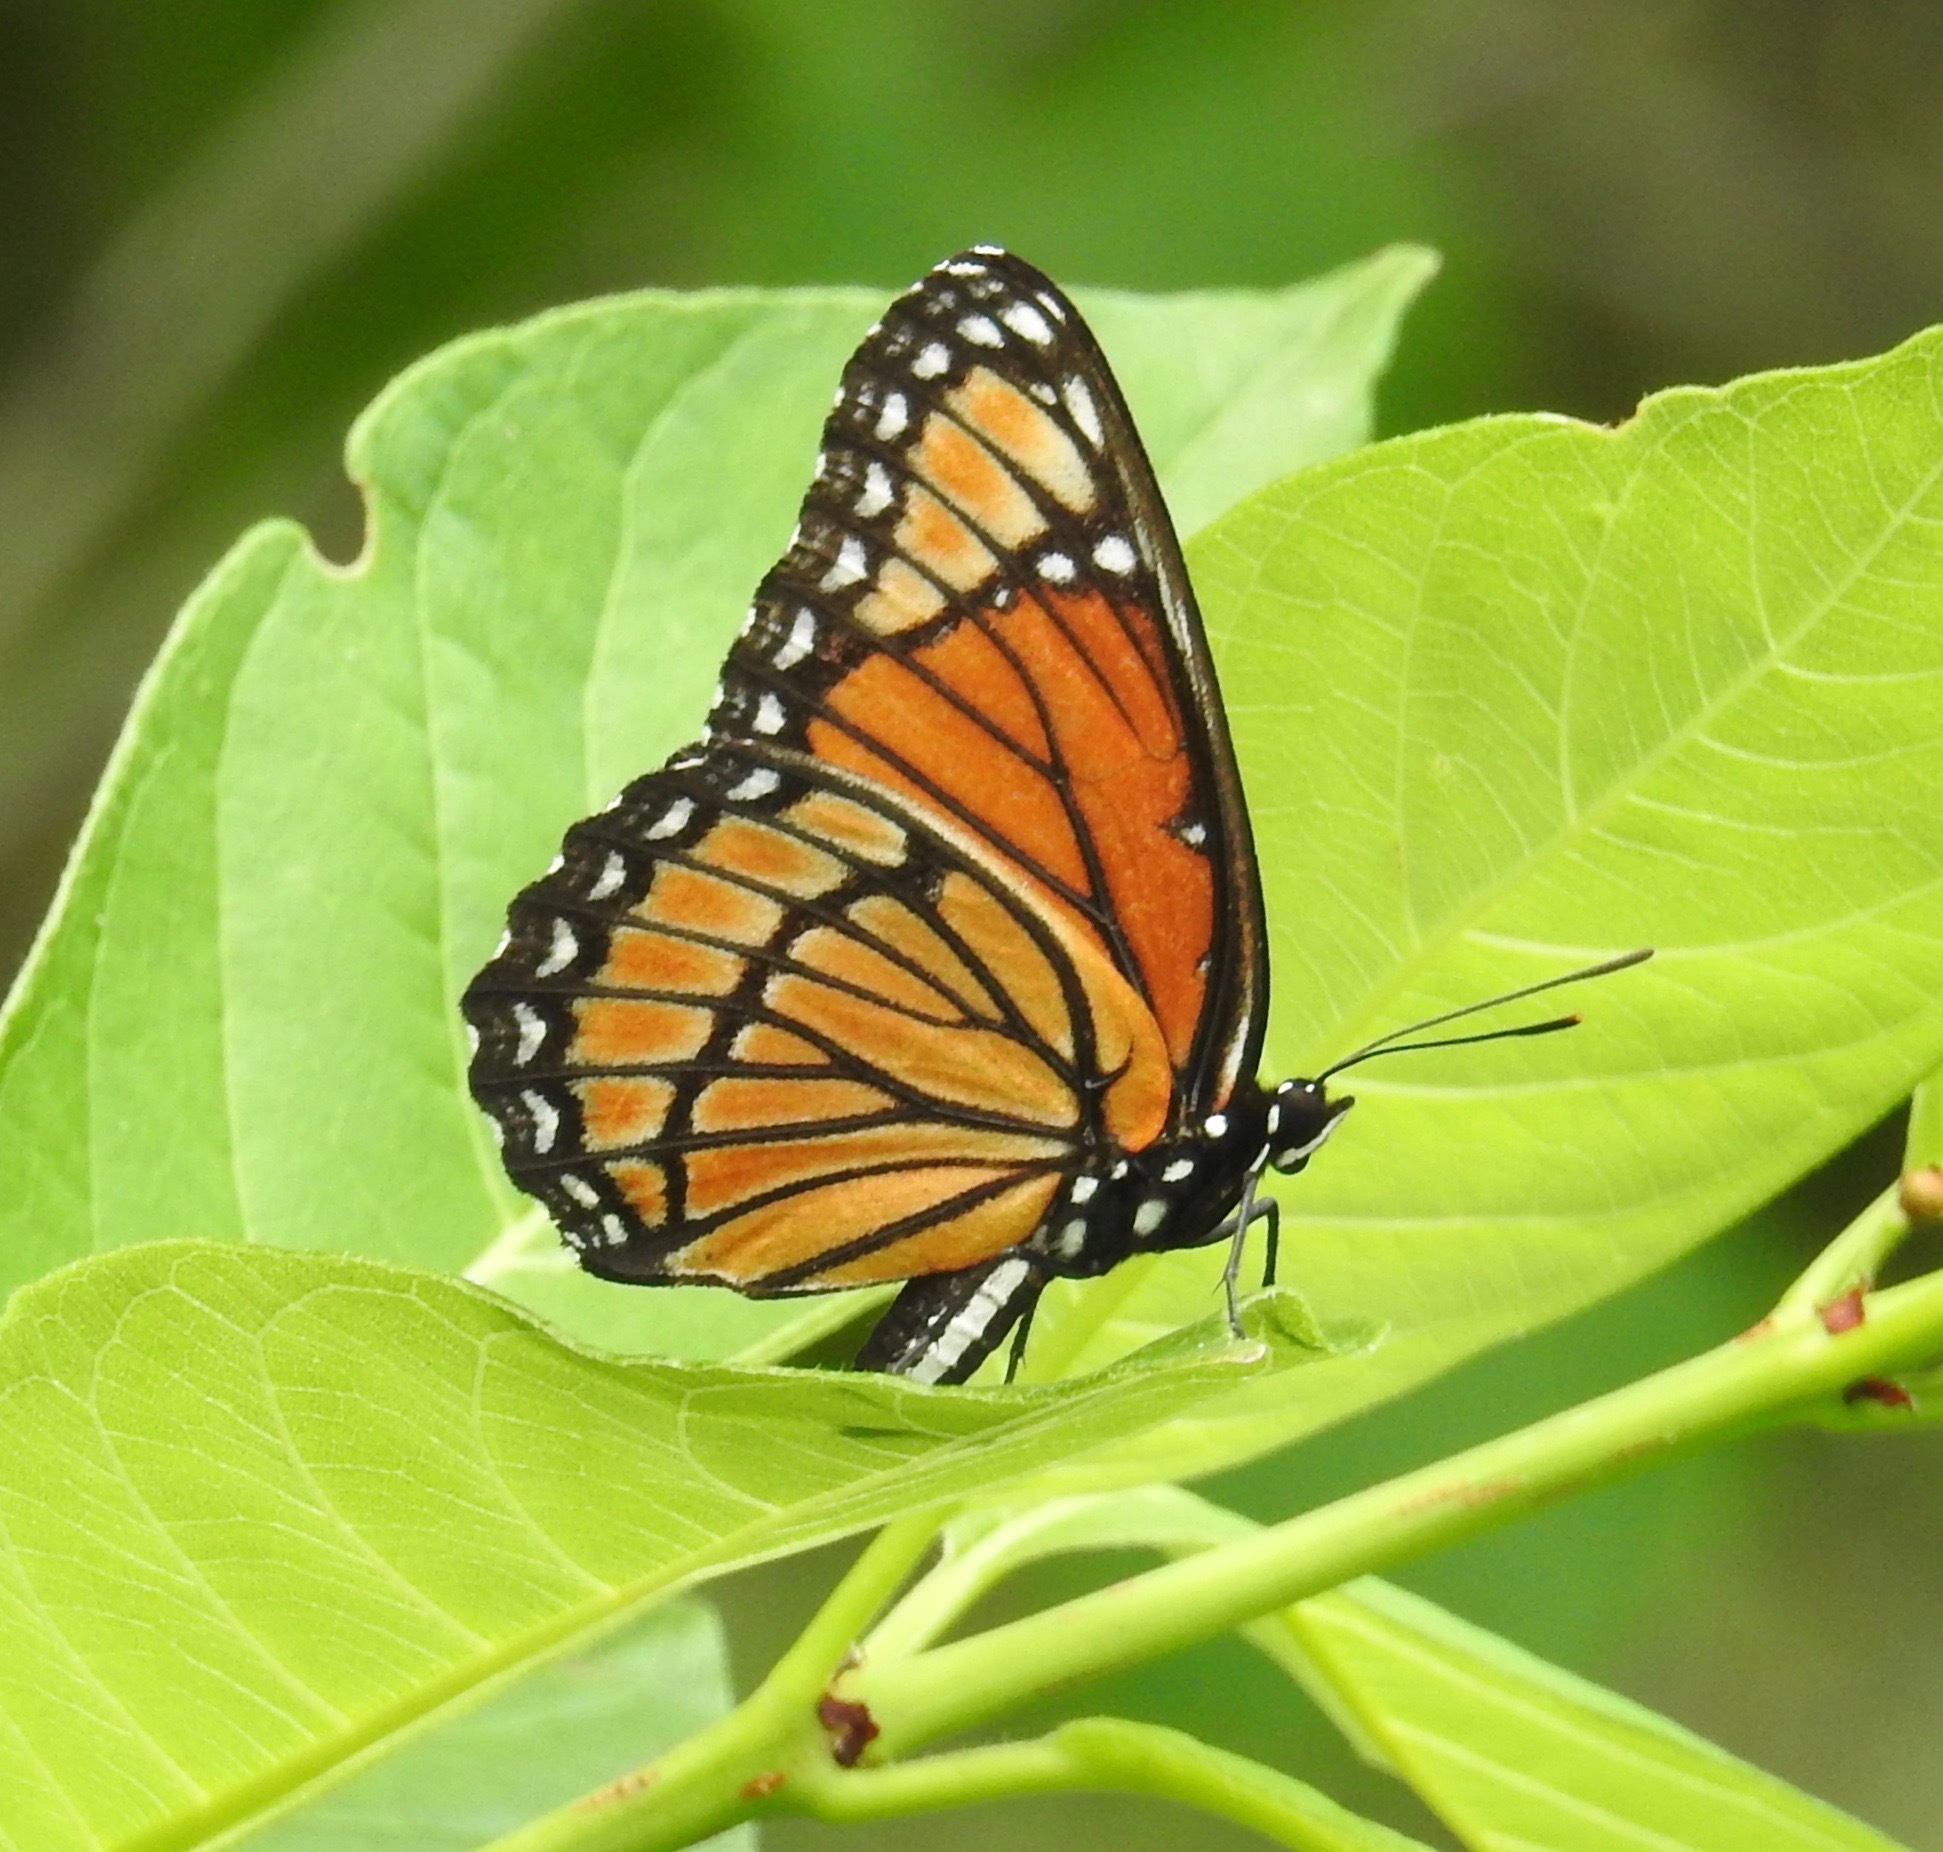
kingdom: Animalia
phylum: Arthropoda
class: Insecta
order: Lepidoptera
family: Nymphalidae
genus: Limenitis
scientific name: Limenitis archippus
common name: Viceroy
